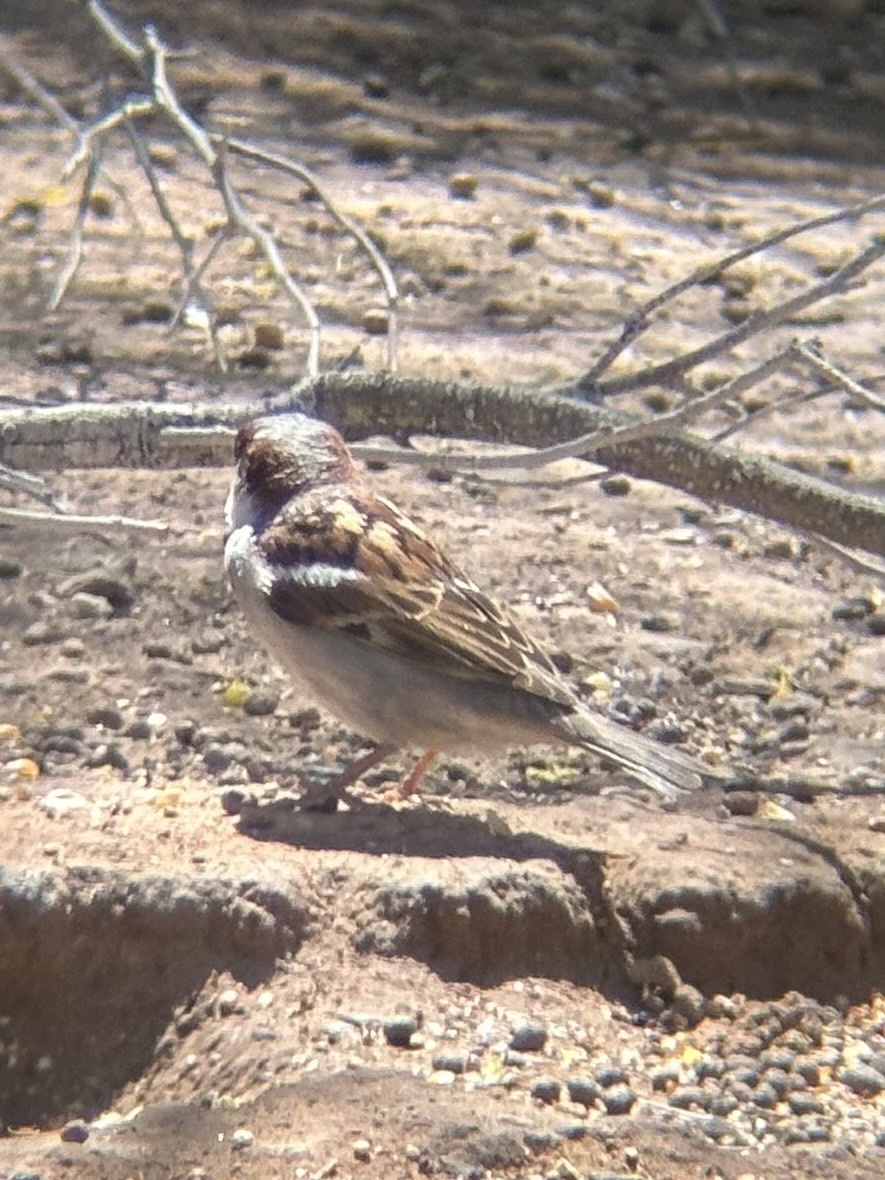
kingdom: Animalia
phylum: Chordata
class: Aves
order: Passeriformes
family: Passeridae
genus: Passer
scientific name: Passer domesticus
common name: House sparrow
